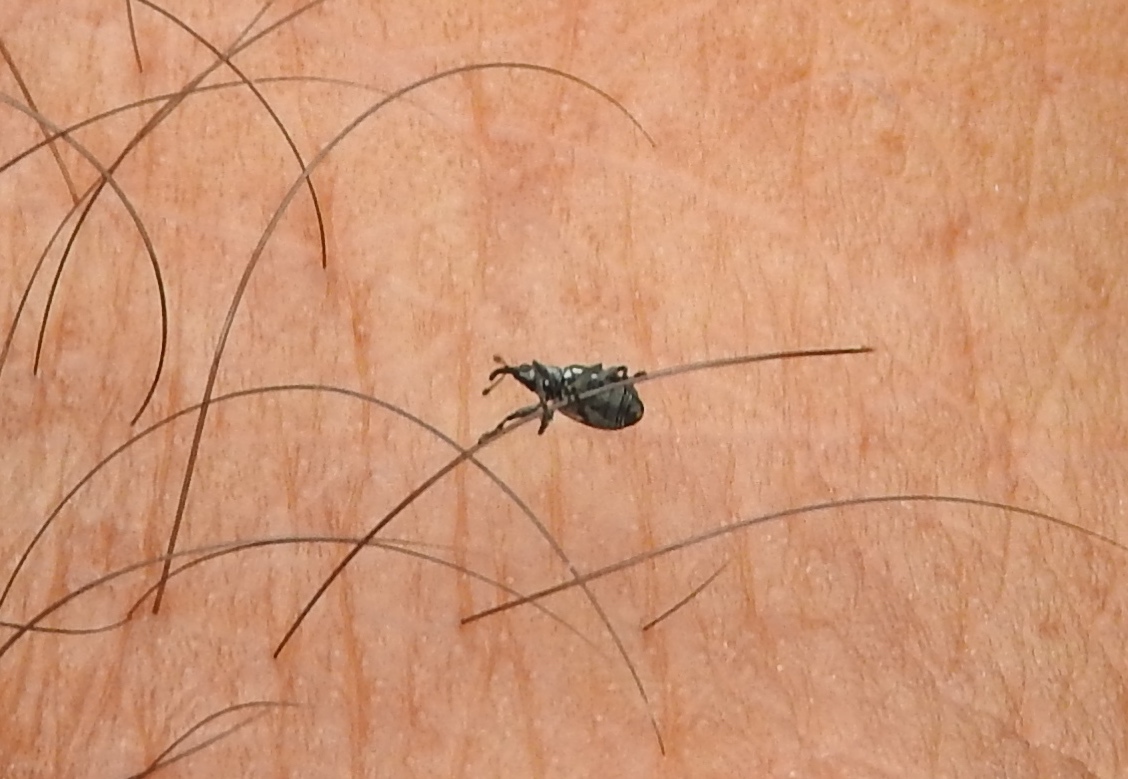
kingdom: Animalia
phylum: Arthropoda
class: Insecta
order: Coleoptera
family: Apionidae
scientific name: Apionidae
